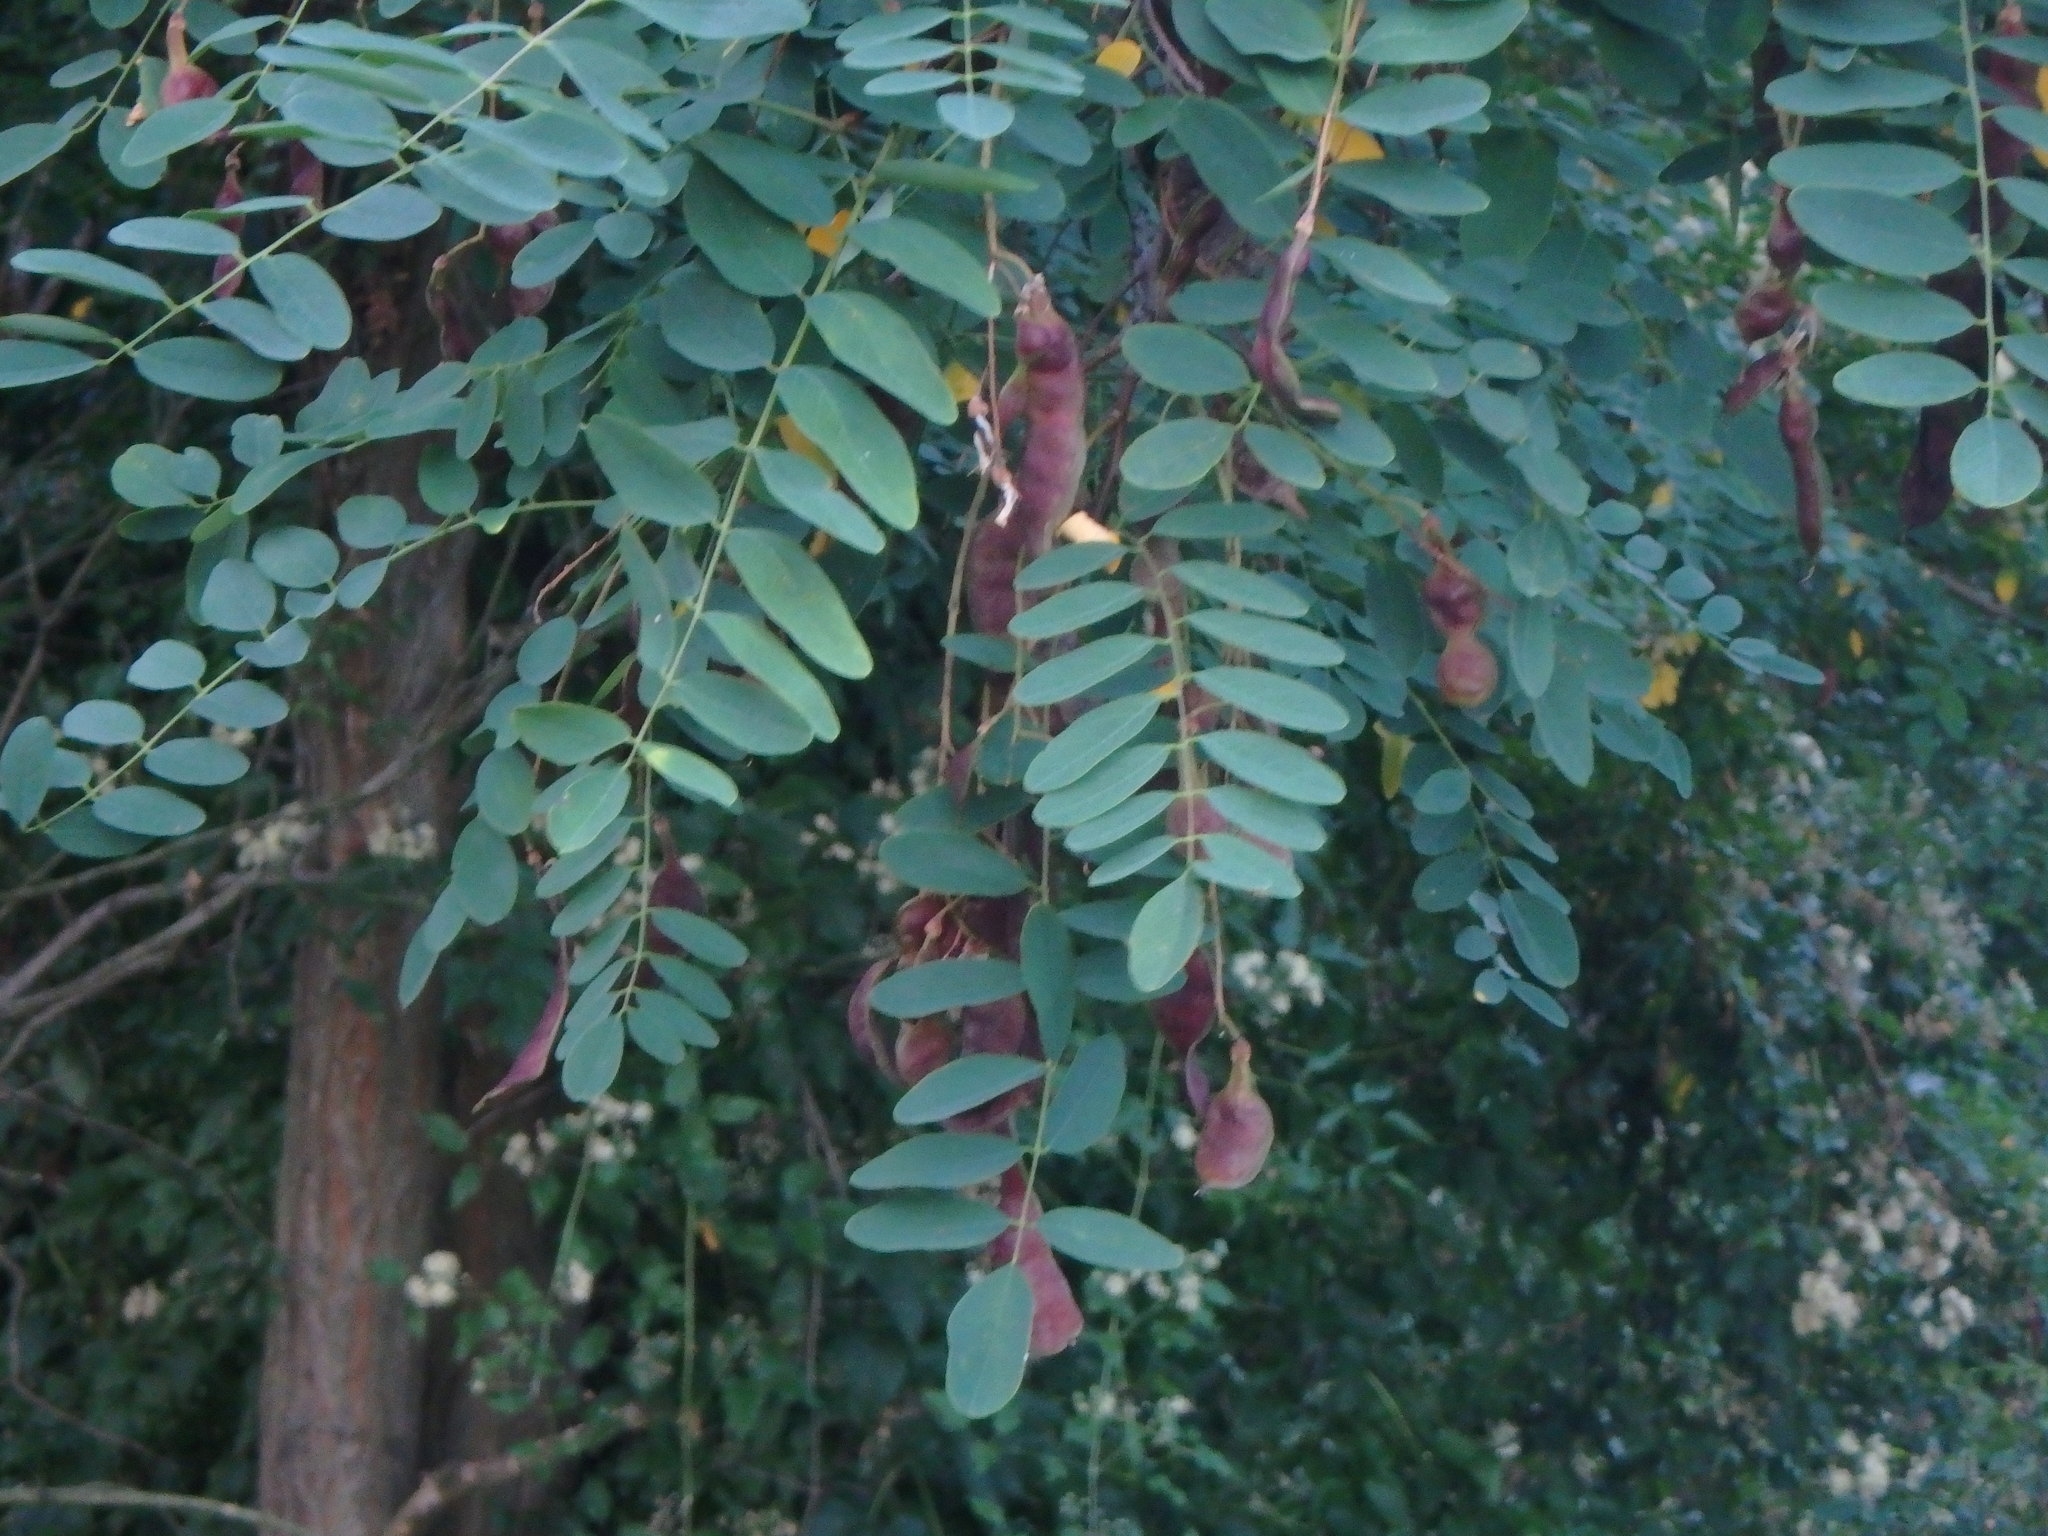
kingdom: Plantae
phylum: Tracheophyta
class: Magnoliopsida
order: Fabales
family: Fabaceae
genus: Robinia
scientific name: Robinia pseudoacacia
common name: Black locust
